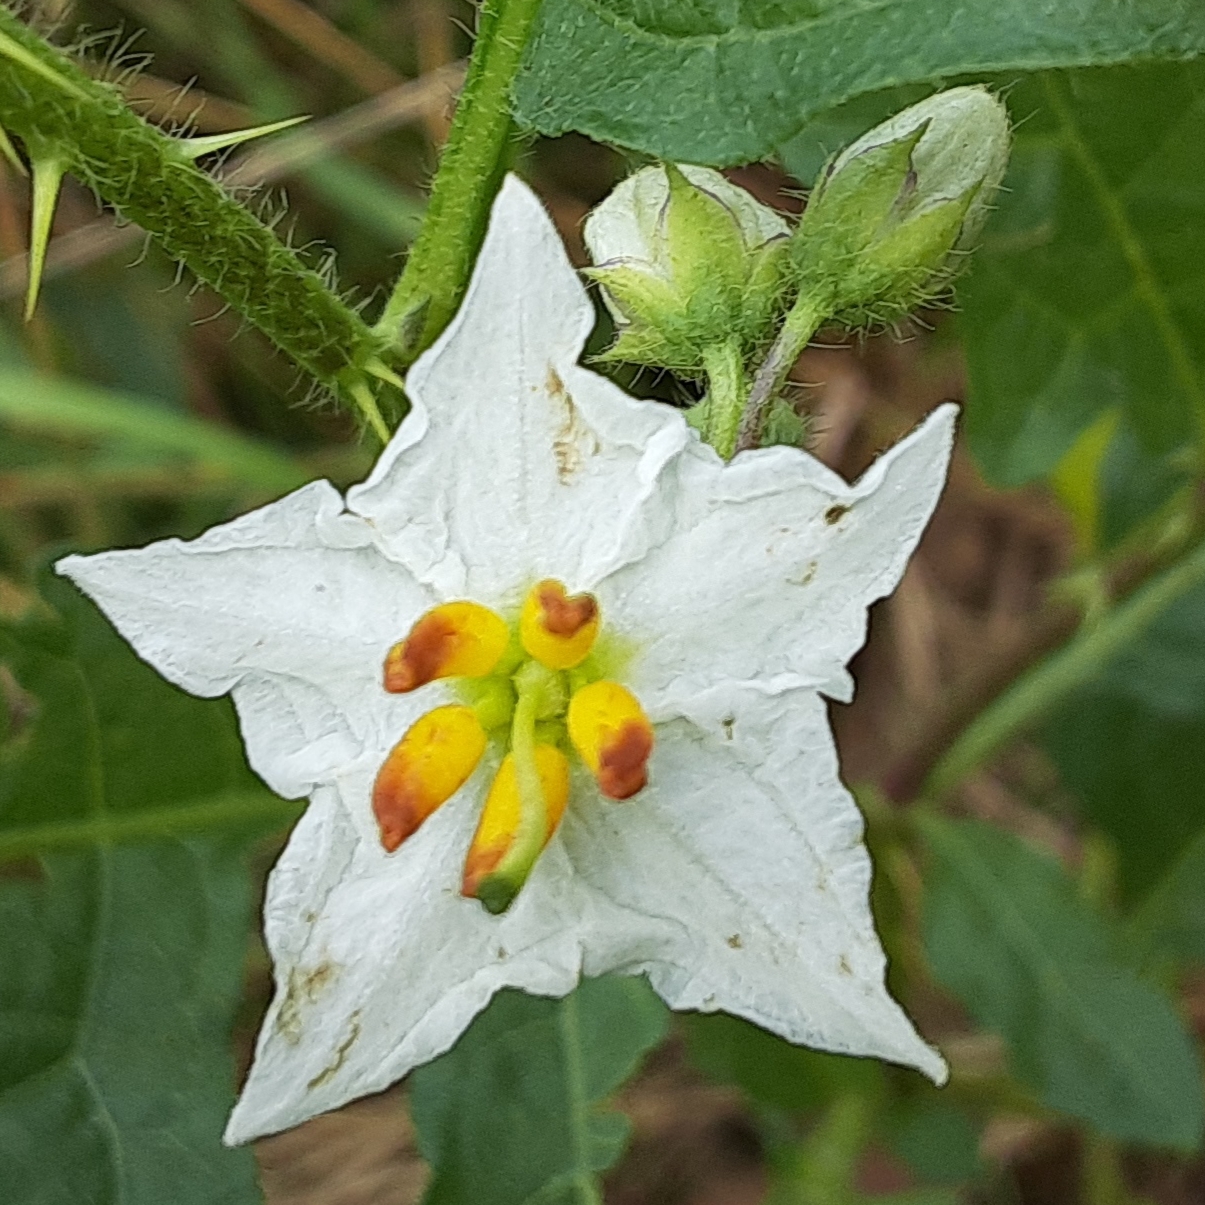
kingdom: Plantae
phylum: Tracheophyta
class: Magnoliopsida
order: Solanales
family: Solanaceae
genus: Solanum
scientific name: Solanum carolinense
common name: Horse-nettle
